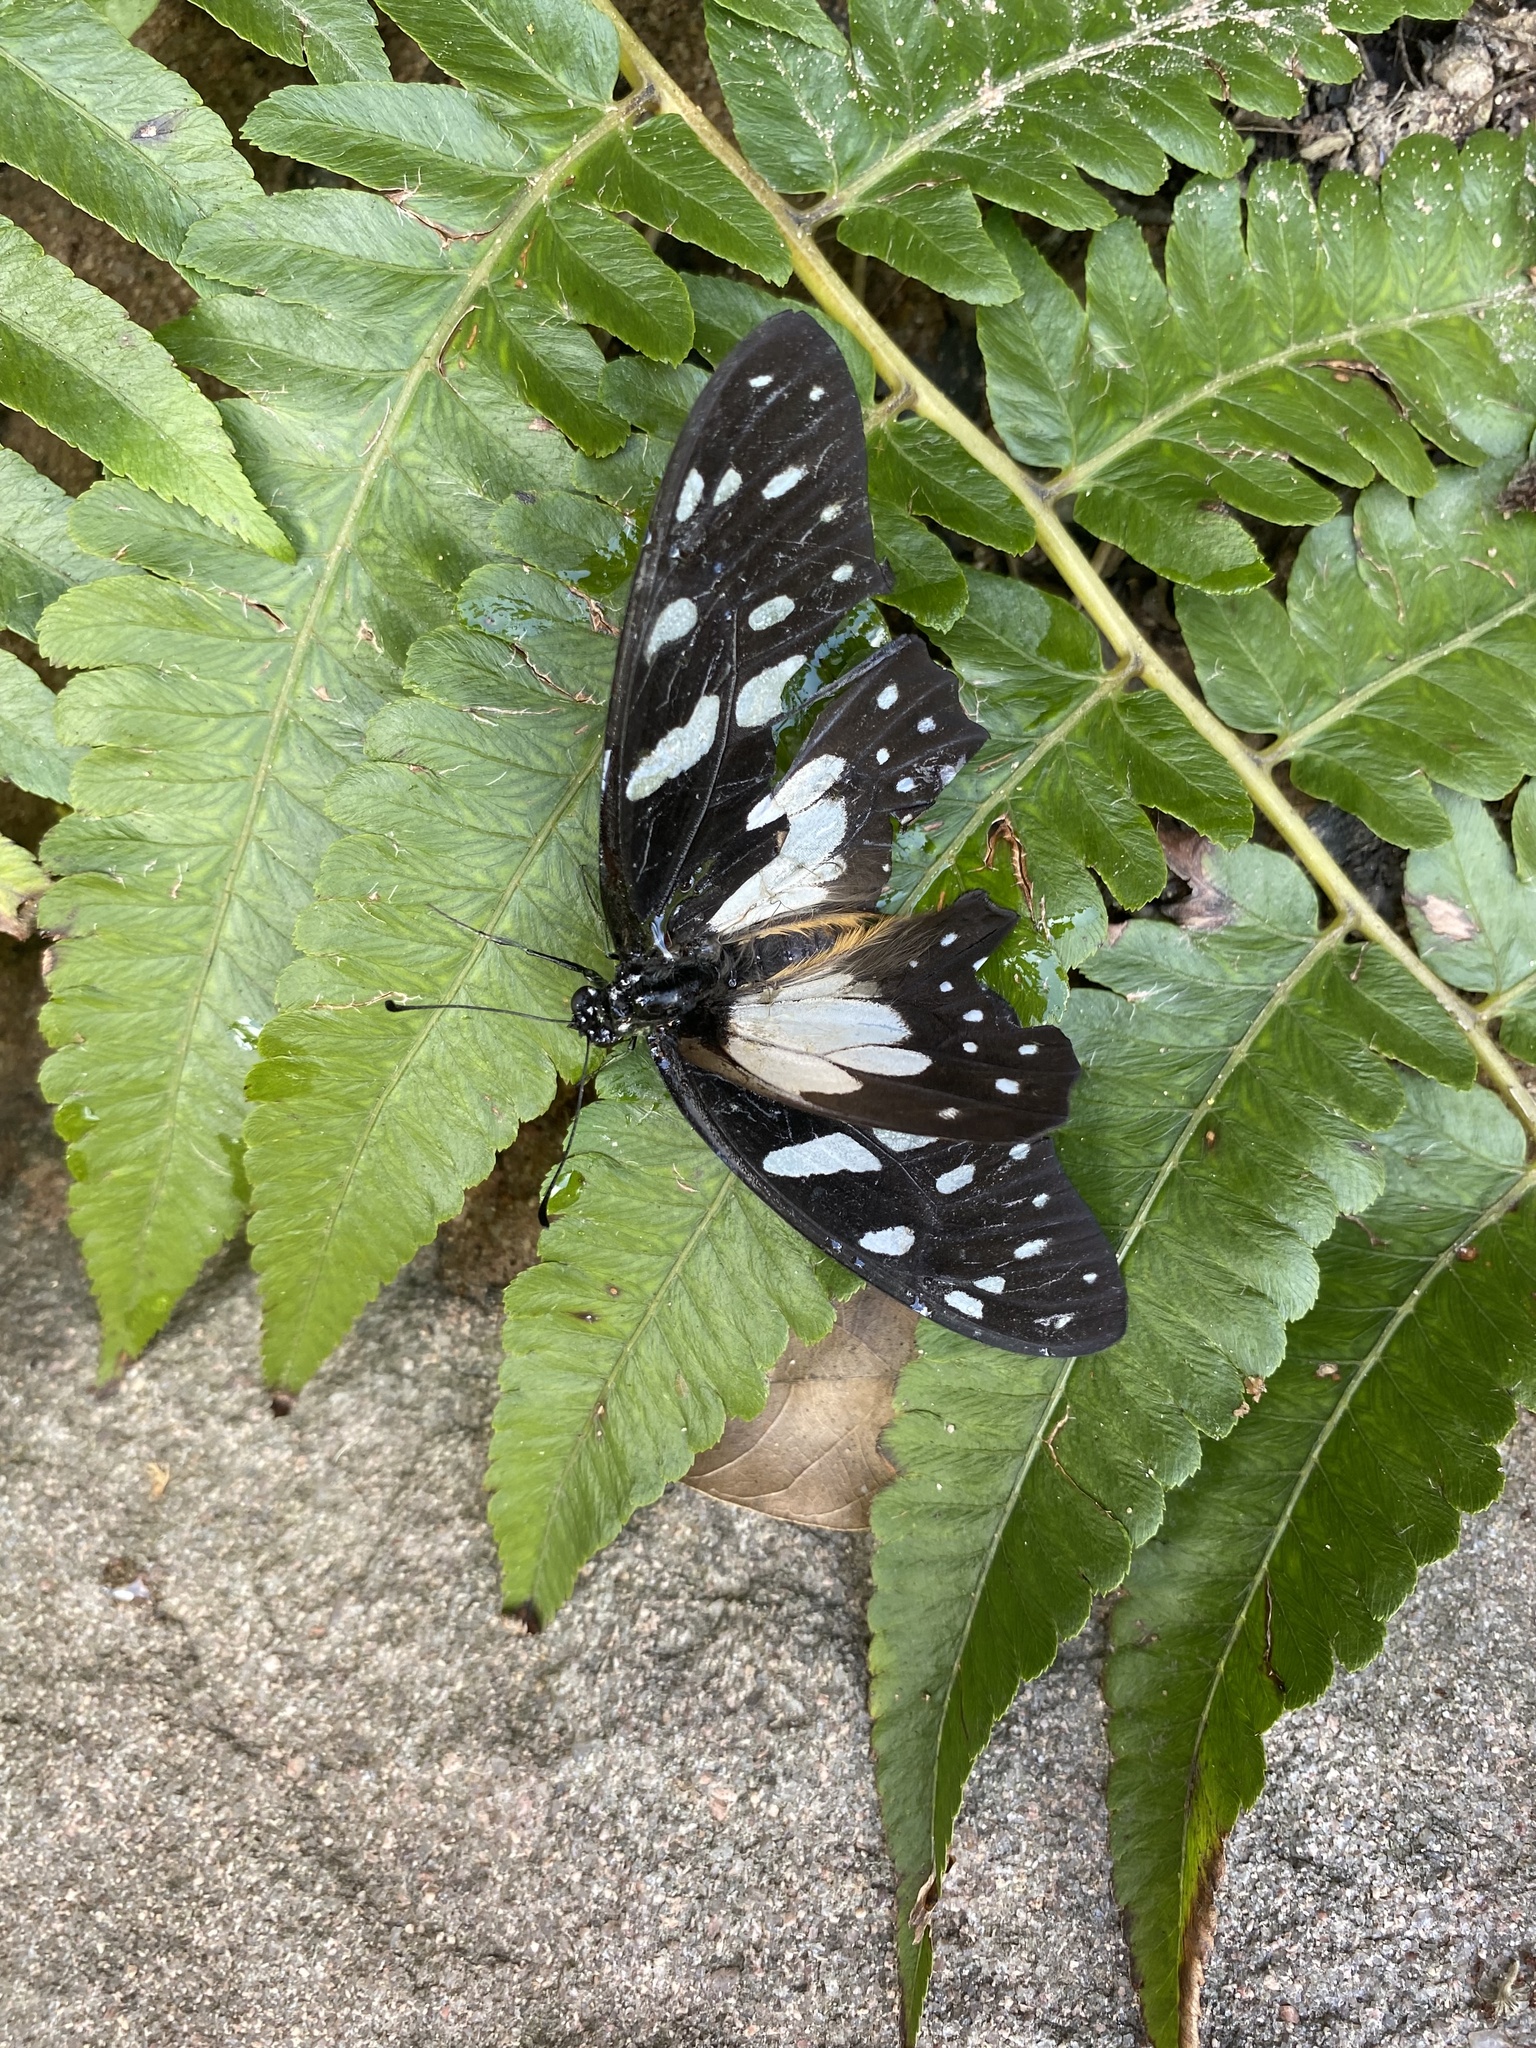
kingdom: Animalia
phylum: Arthropoda
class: Insecta
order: Lepidoptera
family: Papilionidae
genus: Graphium
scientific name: Graphium leonidas
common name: Common graphium
